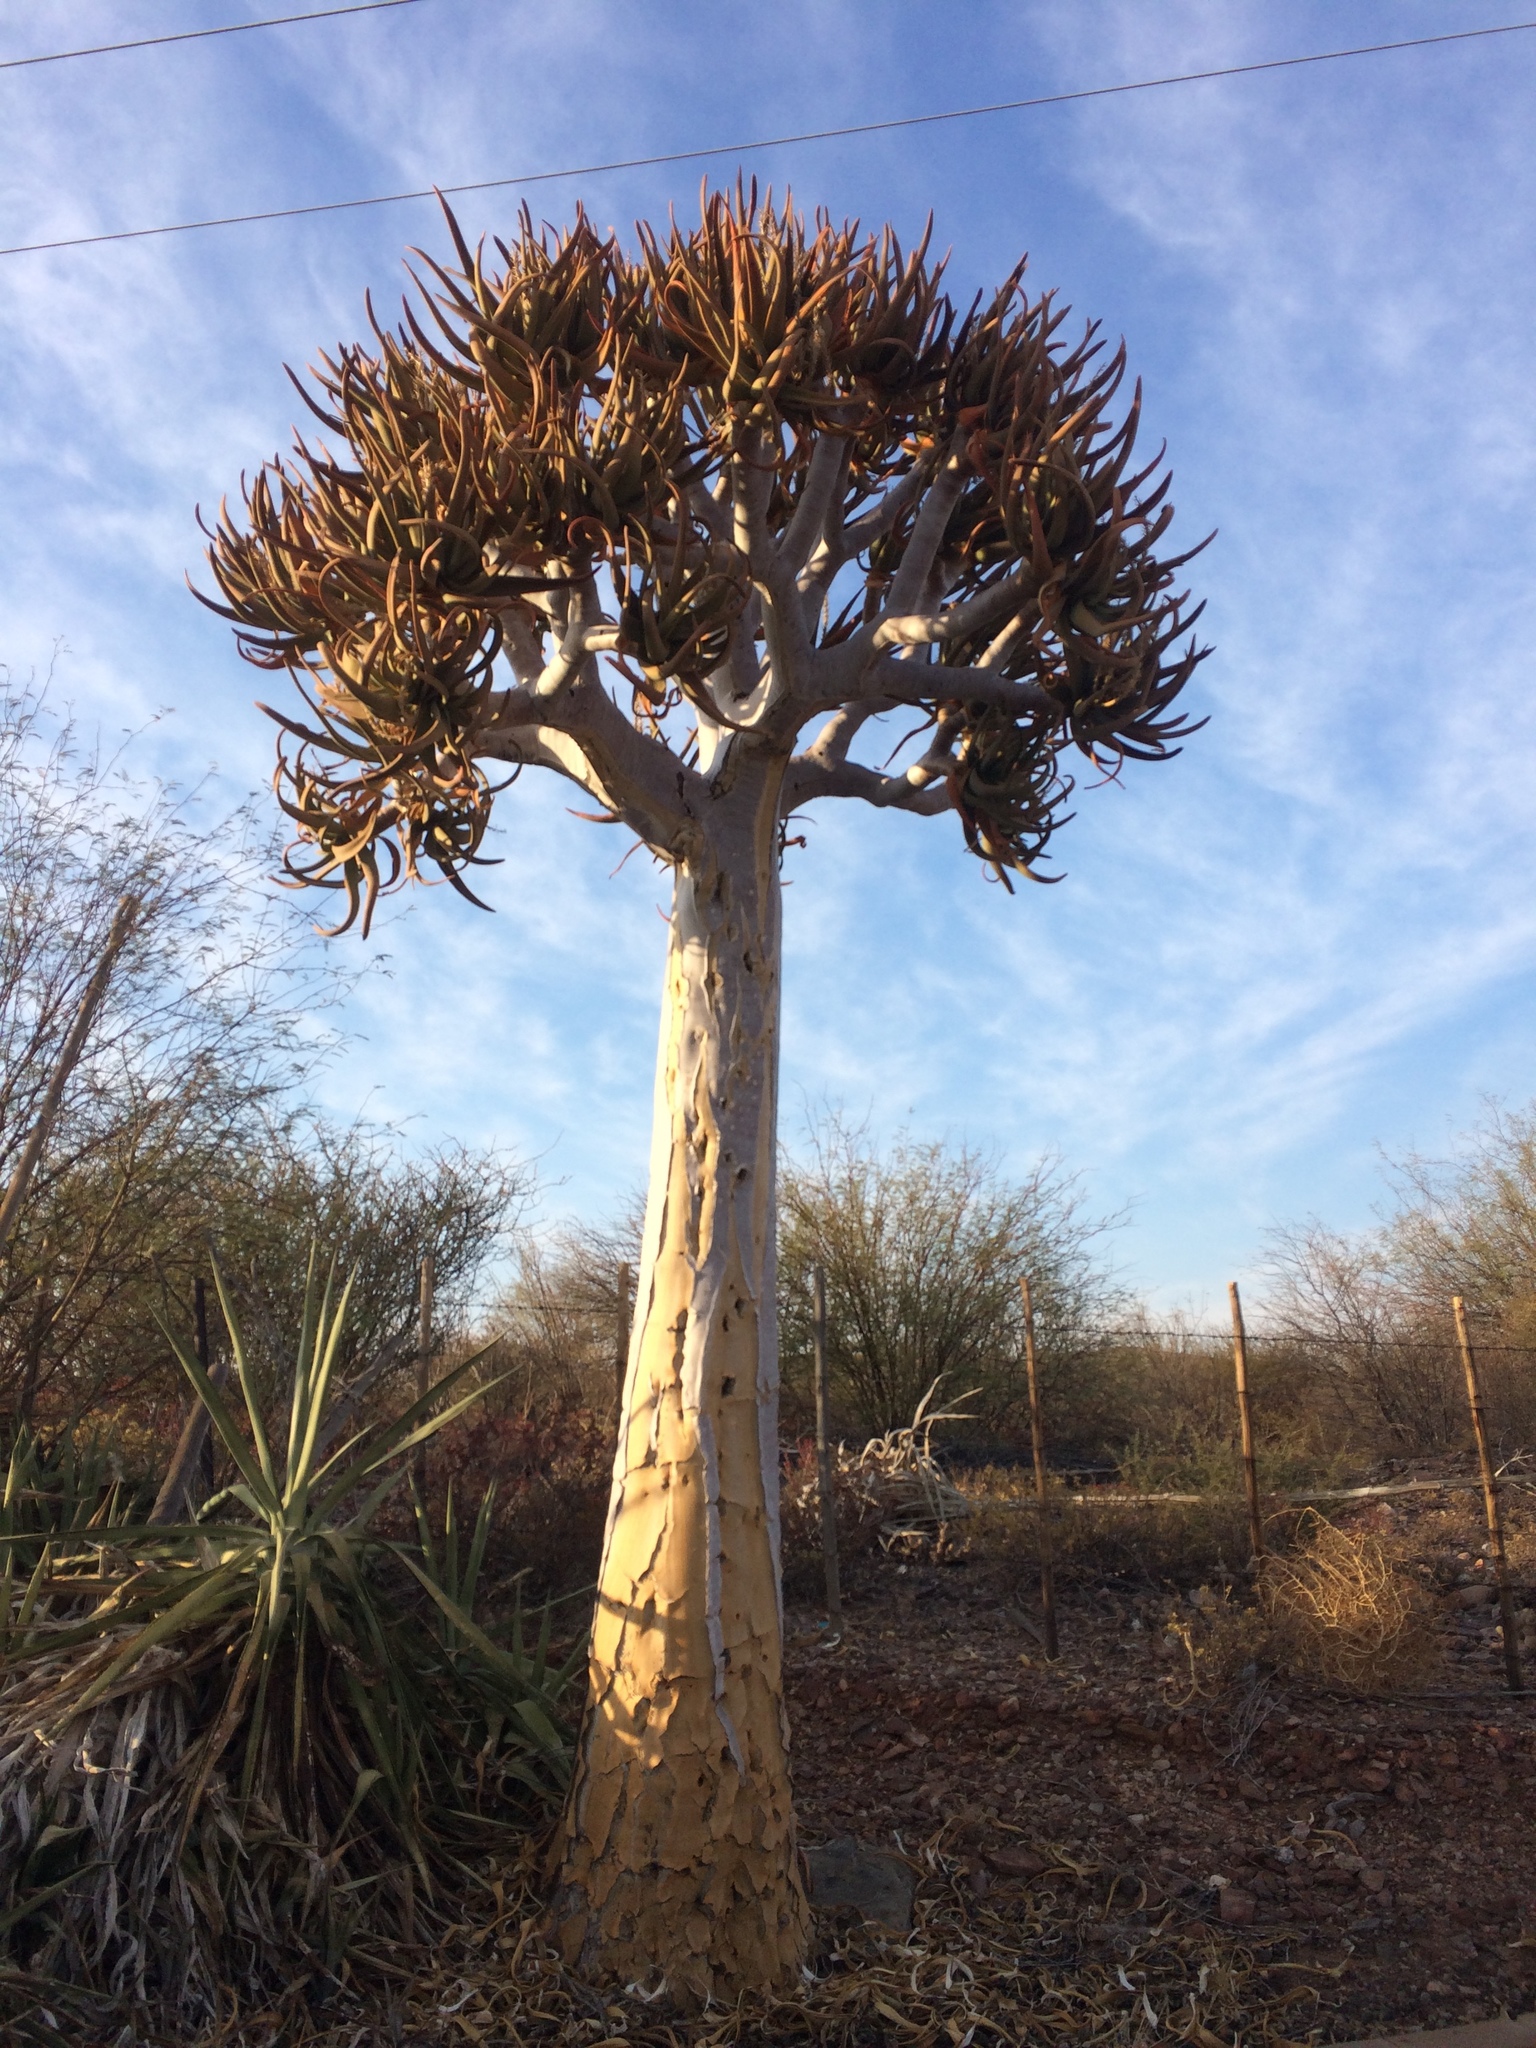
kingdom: Plantae
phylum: Tracheophyta
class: Liliopsida
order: Asparagales
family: Asphodelaceae
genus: Aloidendron
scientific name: Aloidendron dichotomum
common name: Quiver tree
